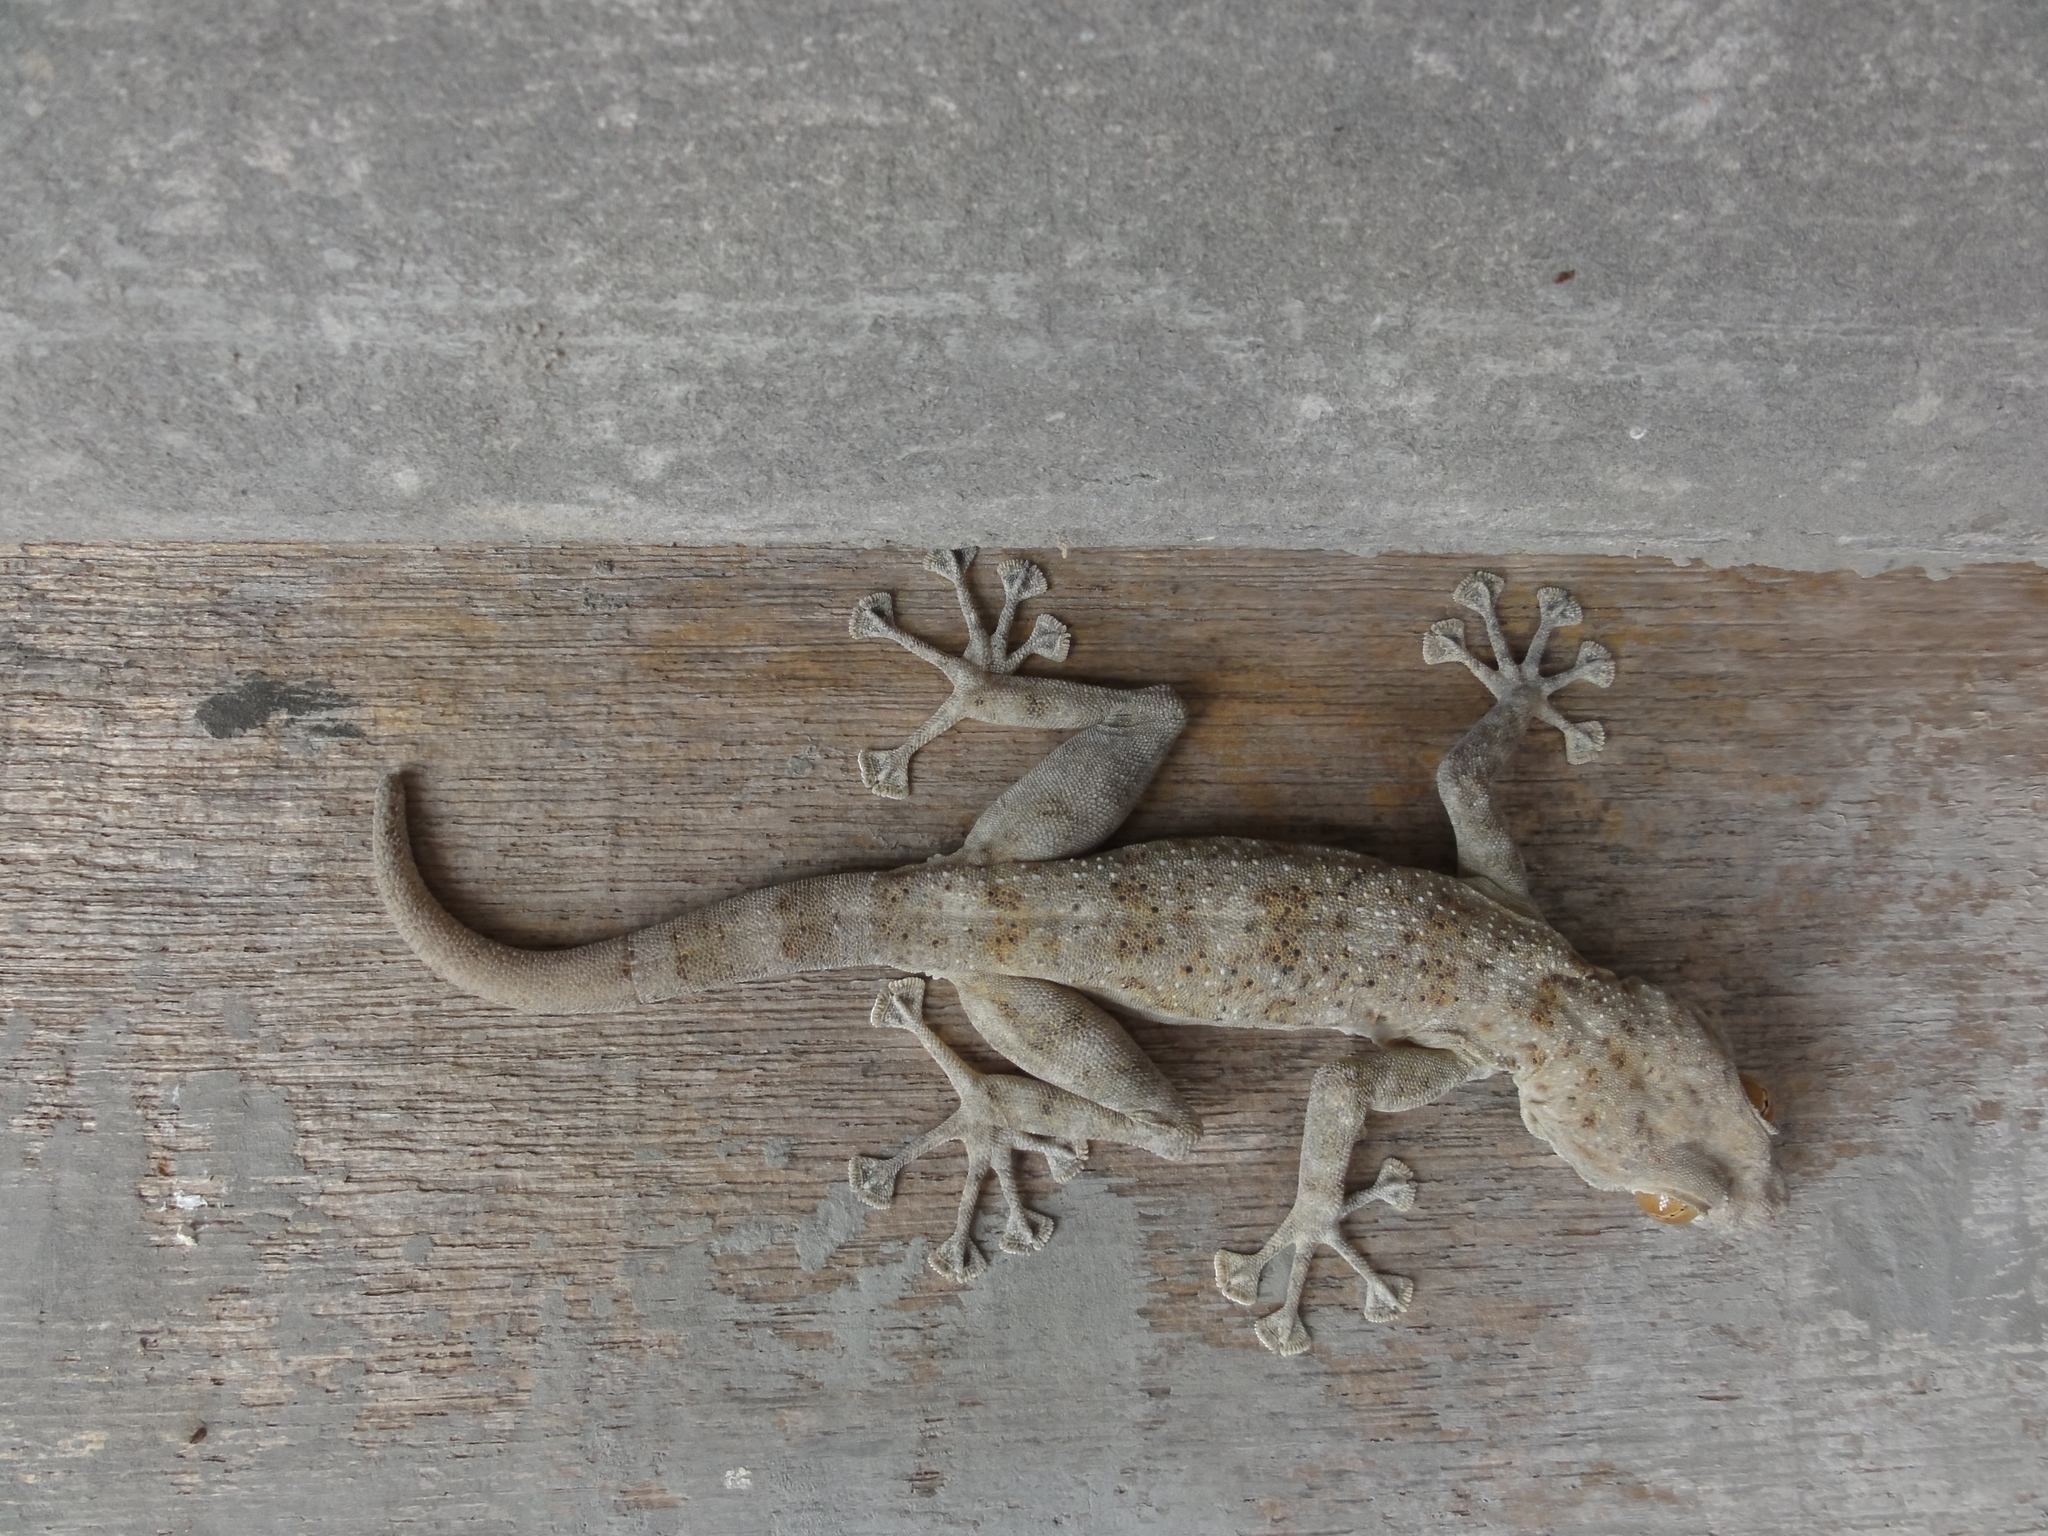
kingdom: Animalia
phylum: Chordata
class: Squamata
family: Phyllodactylidae
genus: Ptyodactylus
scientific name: Ptyodactylus dhofarensis
